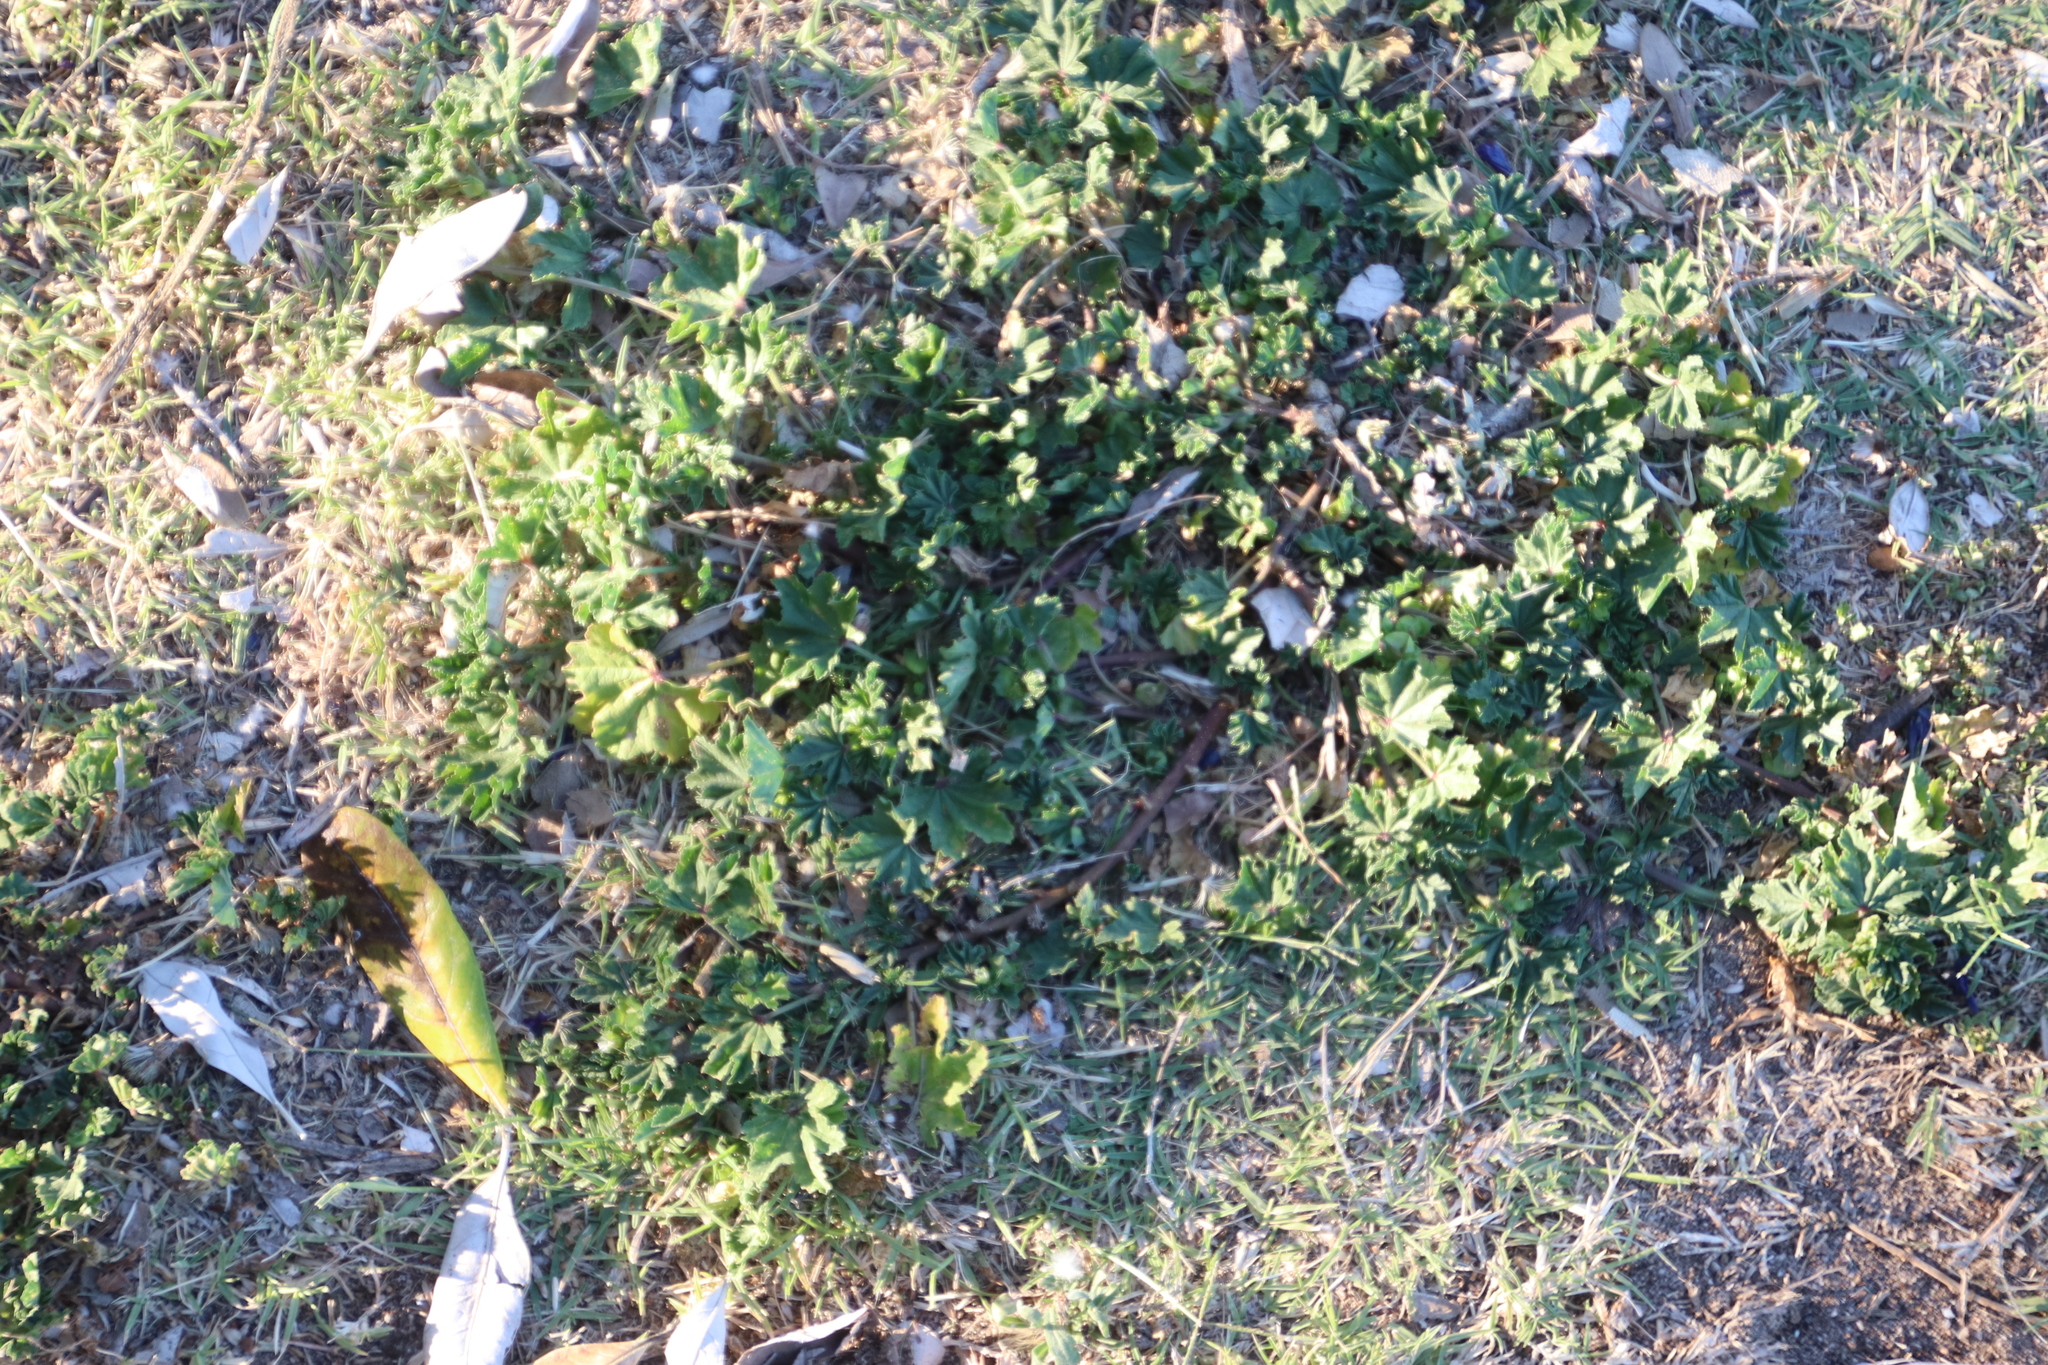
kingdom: Plantae
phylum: Tracheophyta
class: Magnoliopsida
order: Malvales
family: Malvaceae
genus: Malva
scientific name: Malva parviflora
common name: Least mallow
